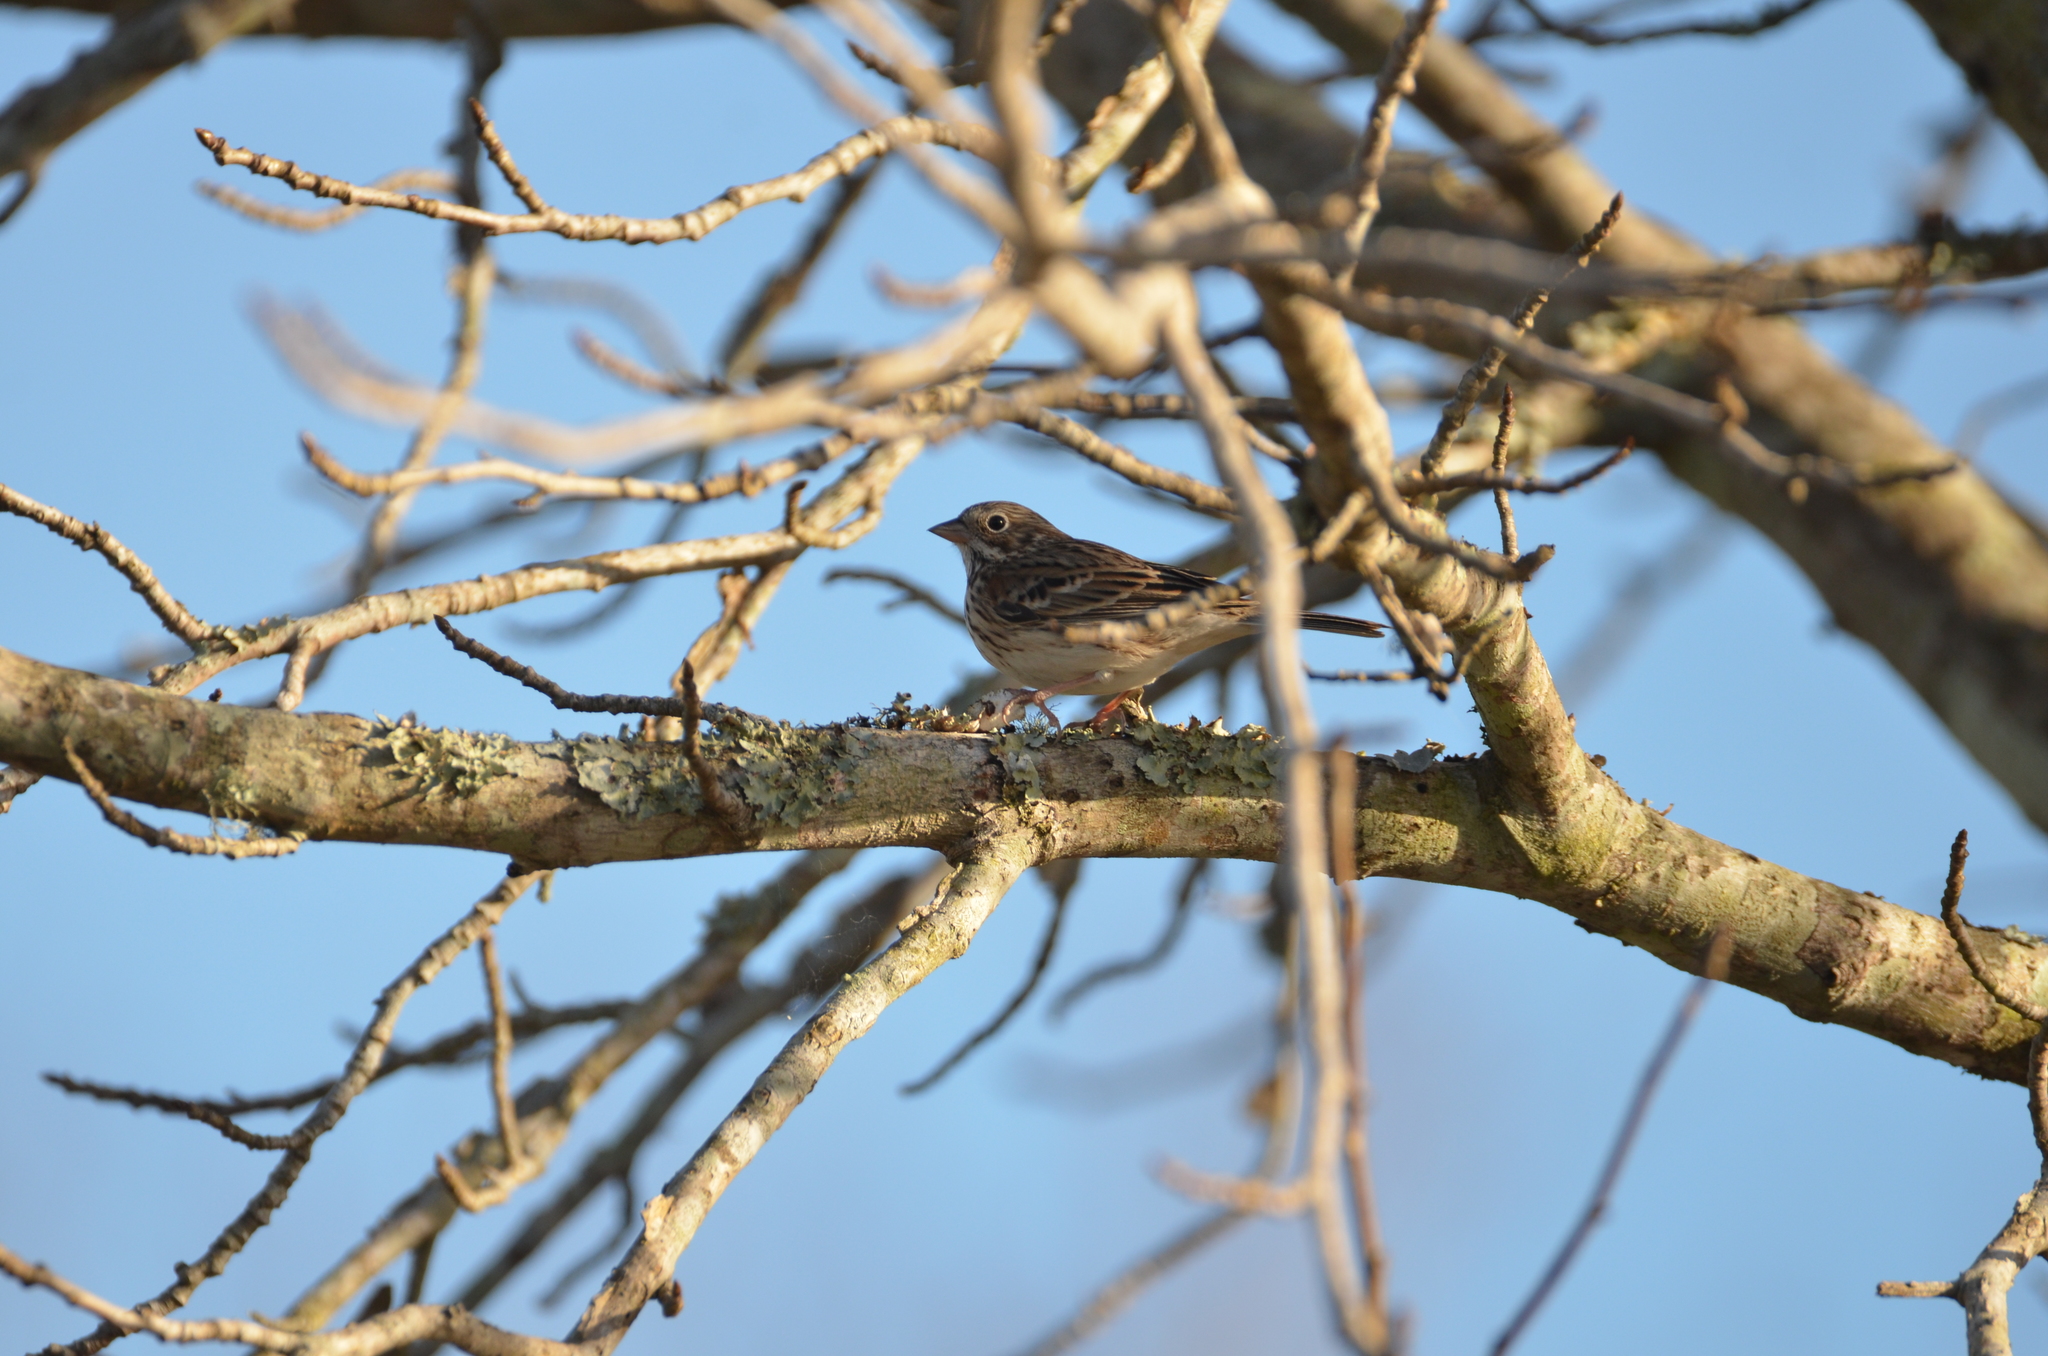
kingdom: Animalia
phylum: Chordata
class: Aves
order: Passeriformes
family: Passerellidae
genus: Pooecetes
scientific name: Pooecetes gramineus
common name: Vesper sparrow
